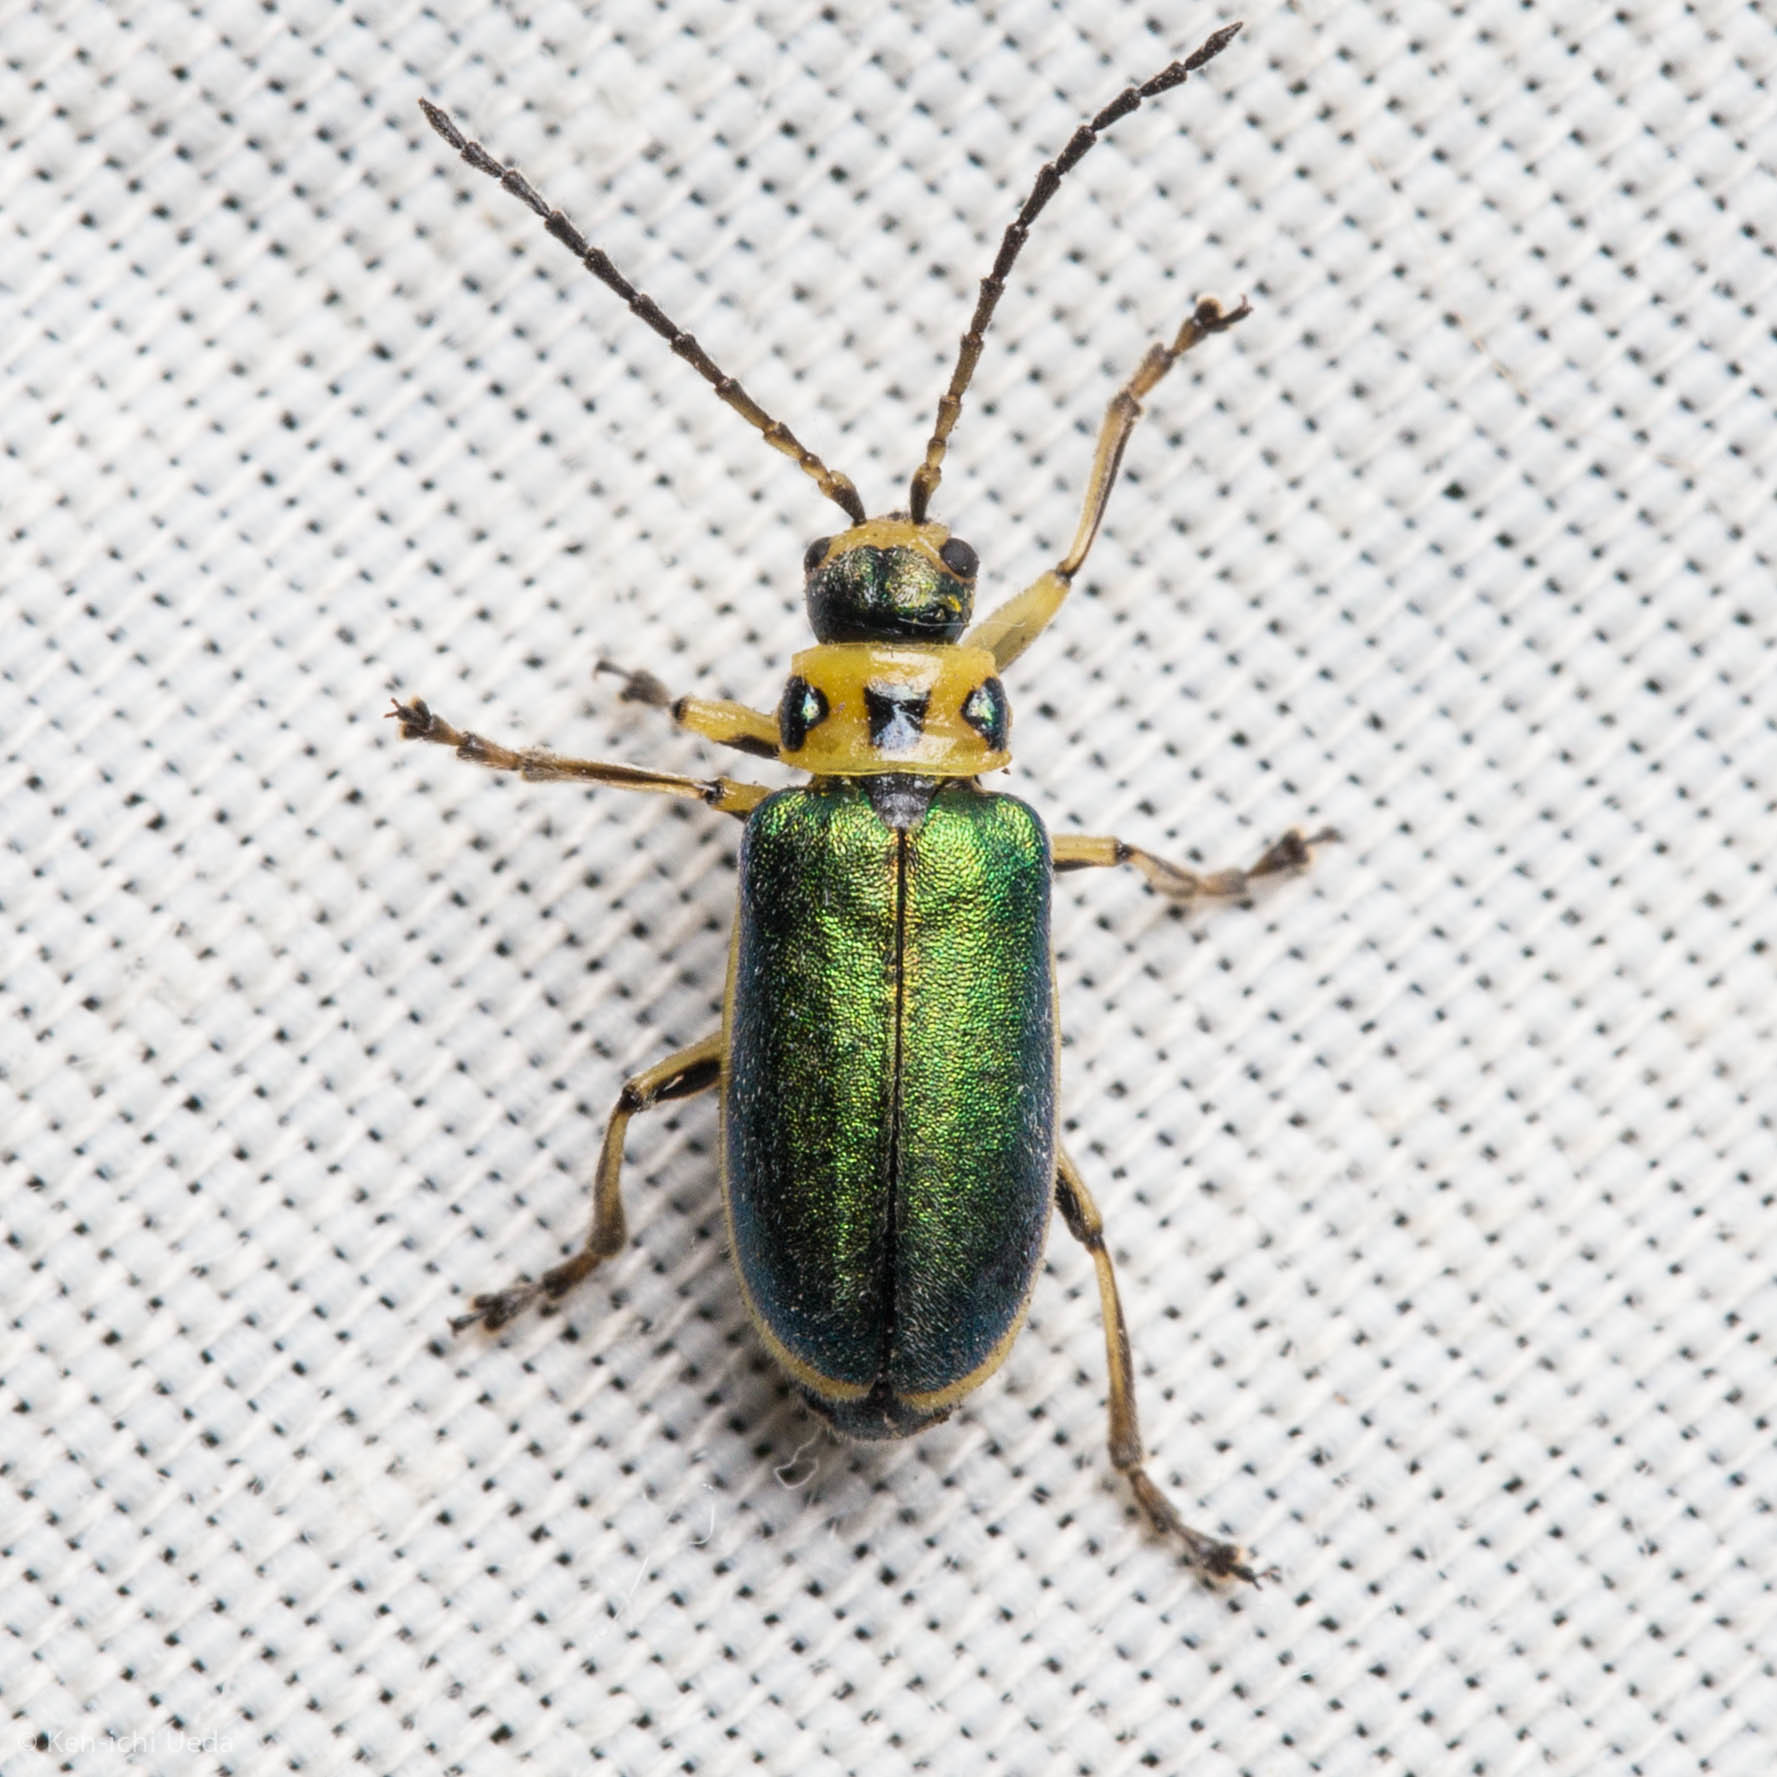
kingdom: Animalia
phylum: Arthropoda
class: Insecta
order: Coleoptera
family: Chrysomelidae
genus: Trirhabda
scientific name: Trirhabda flavolimbata
